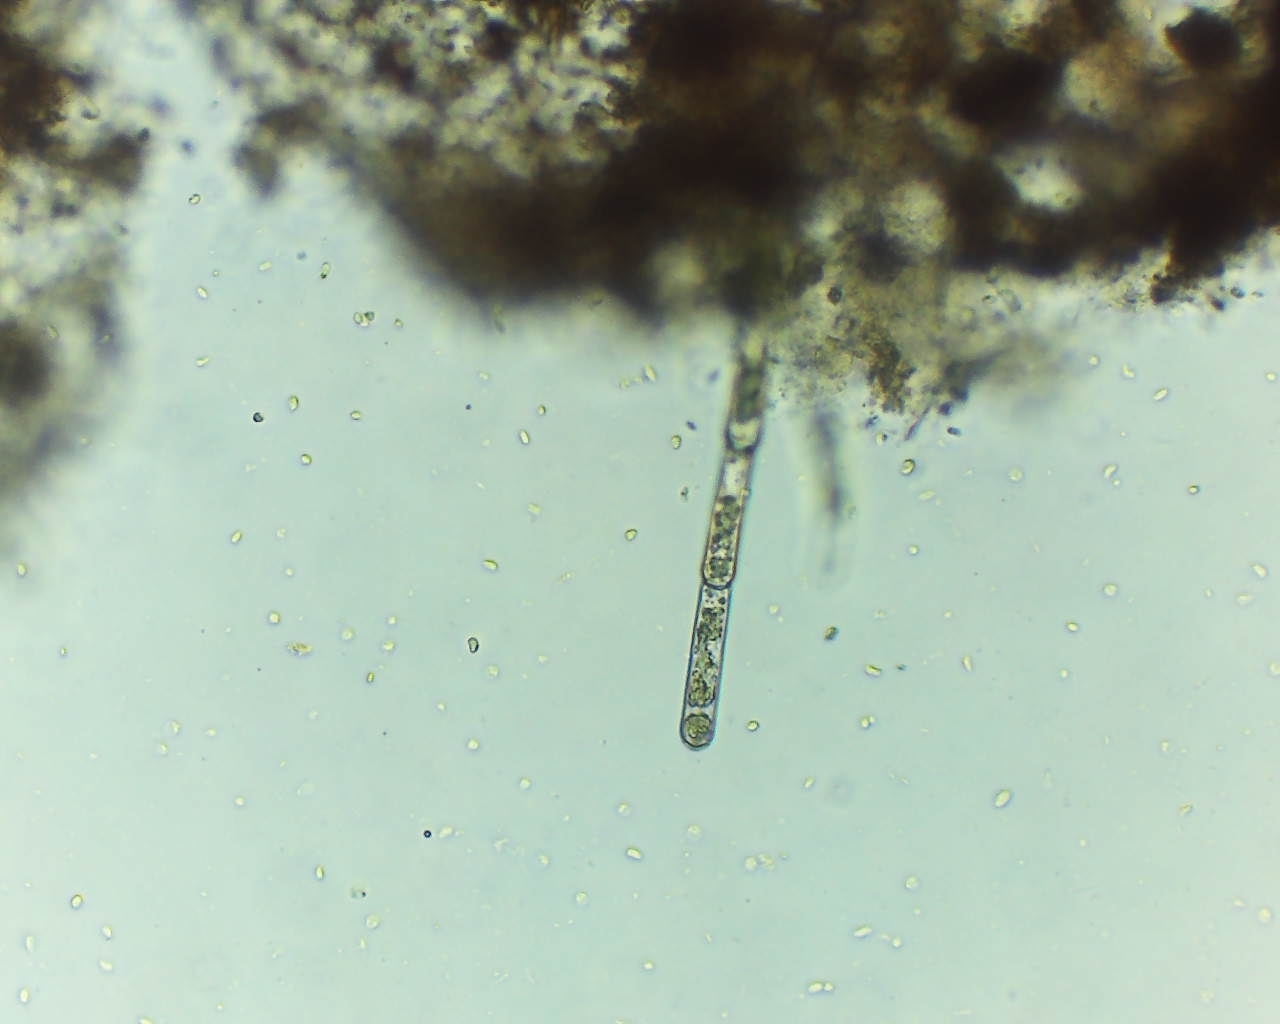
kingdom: Plantae
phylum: Chlorophyta
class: Chlorophyceae
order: Oedogoniales
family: Oedogoniaceae
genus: Oedogonium
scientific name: Oedogonium
